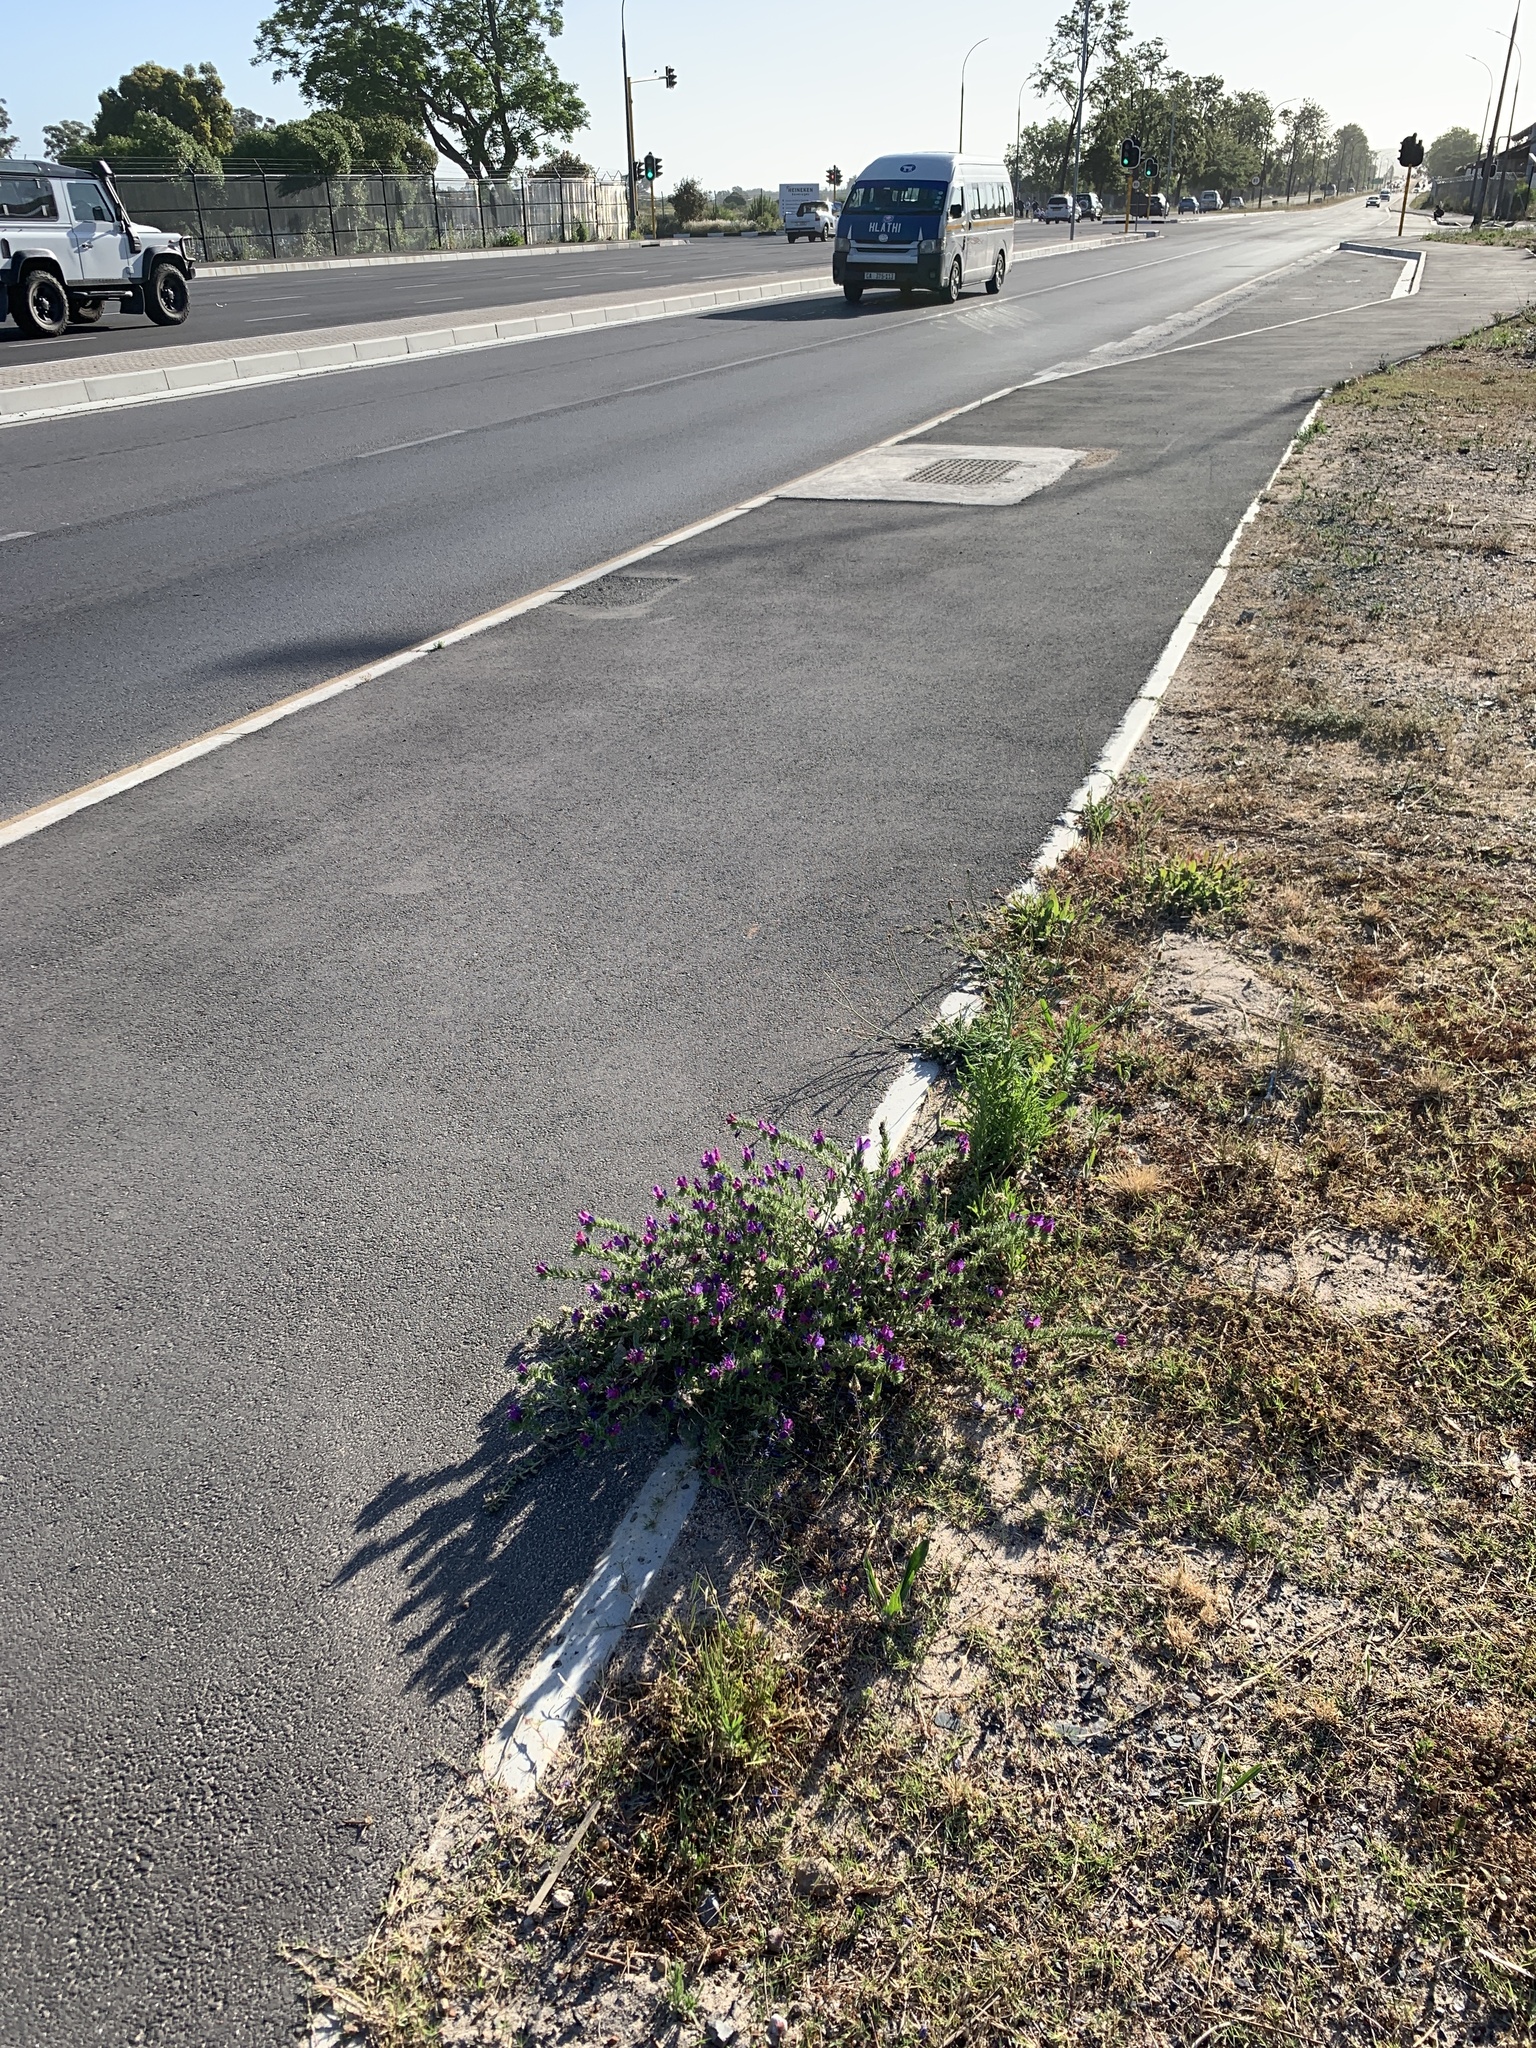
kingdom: Plantae
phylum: Tracheophyta
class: Magnoliopsida
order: Boraginales
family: Boraginaceae
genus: Echium
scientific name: Echium plantagineum
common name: Purple viper's-bugloss
